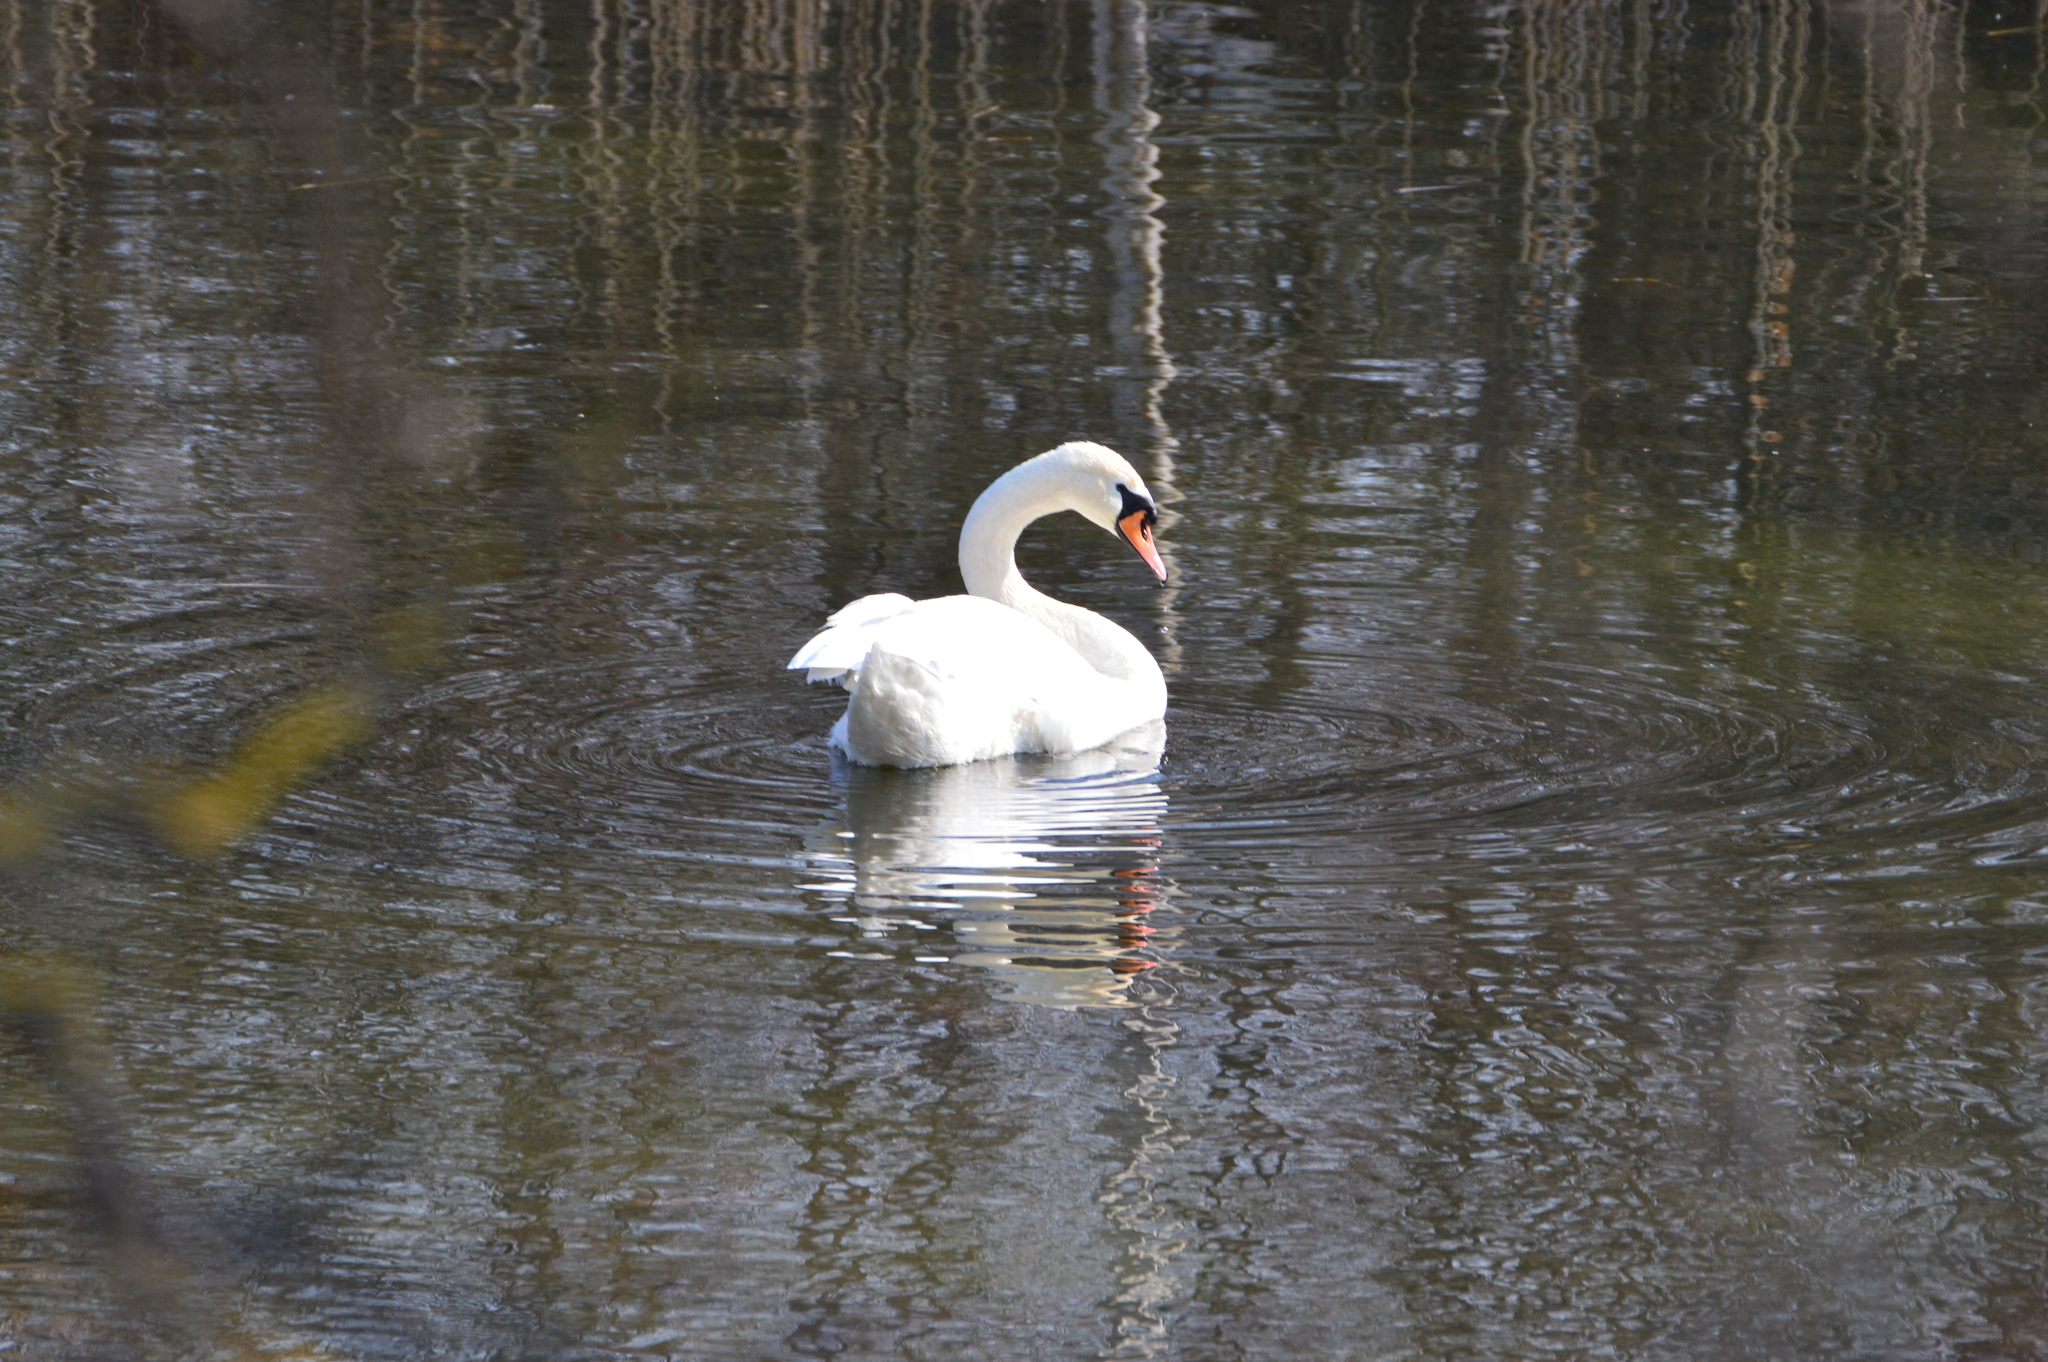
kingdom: Animalia
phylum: Chordata
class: Aves
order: Anseriformes
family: Anatidae
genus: Cygnus
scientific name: Cygnus olor
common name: Mute swan
